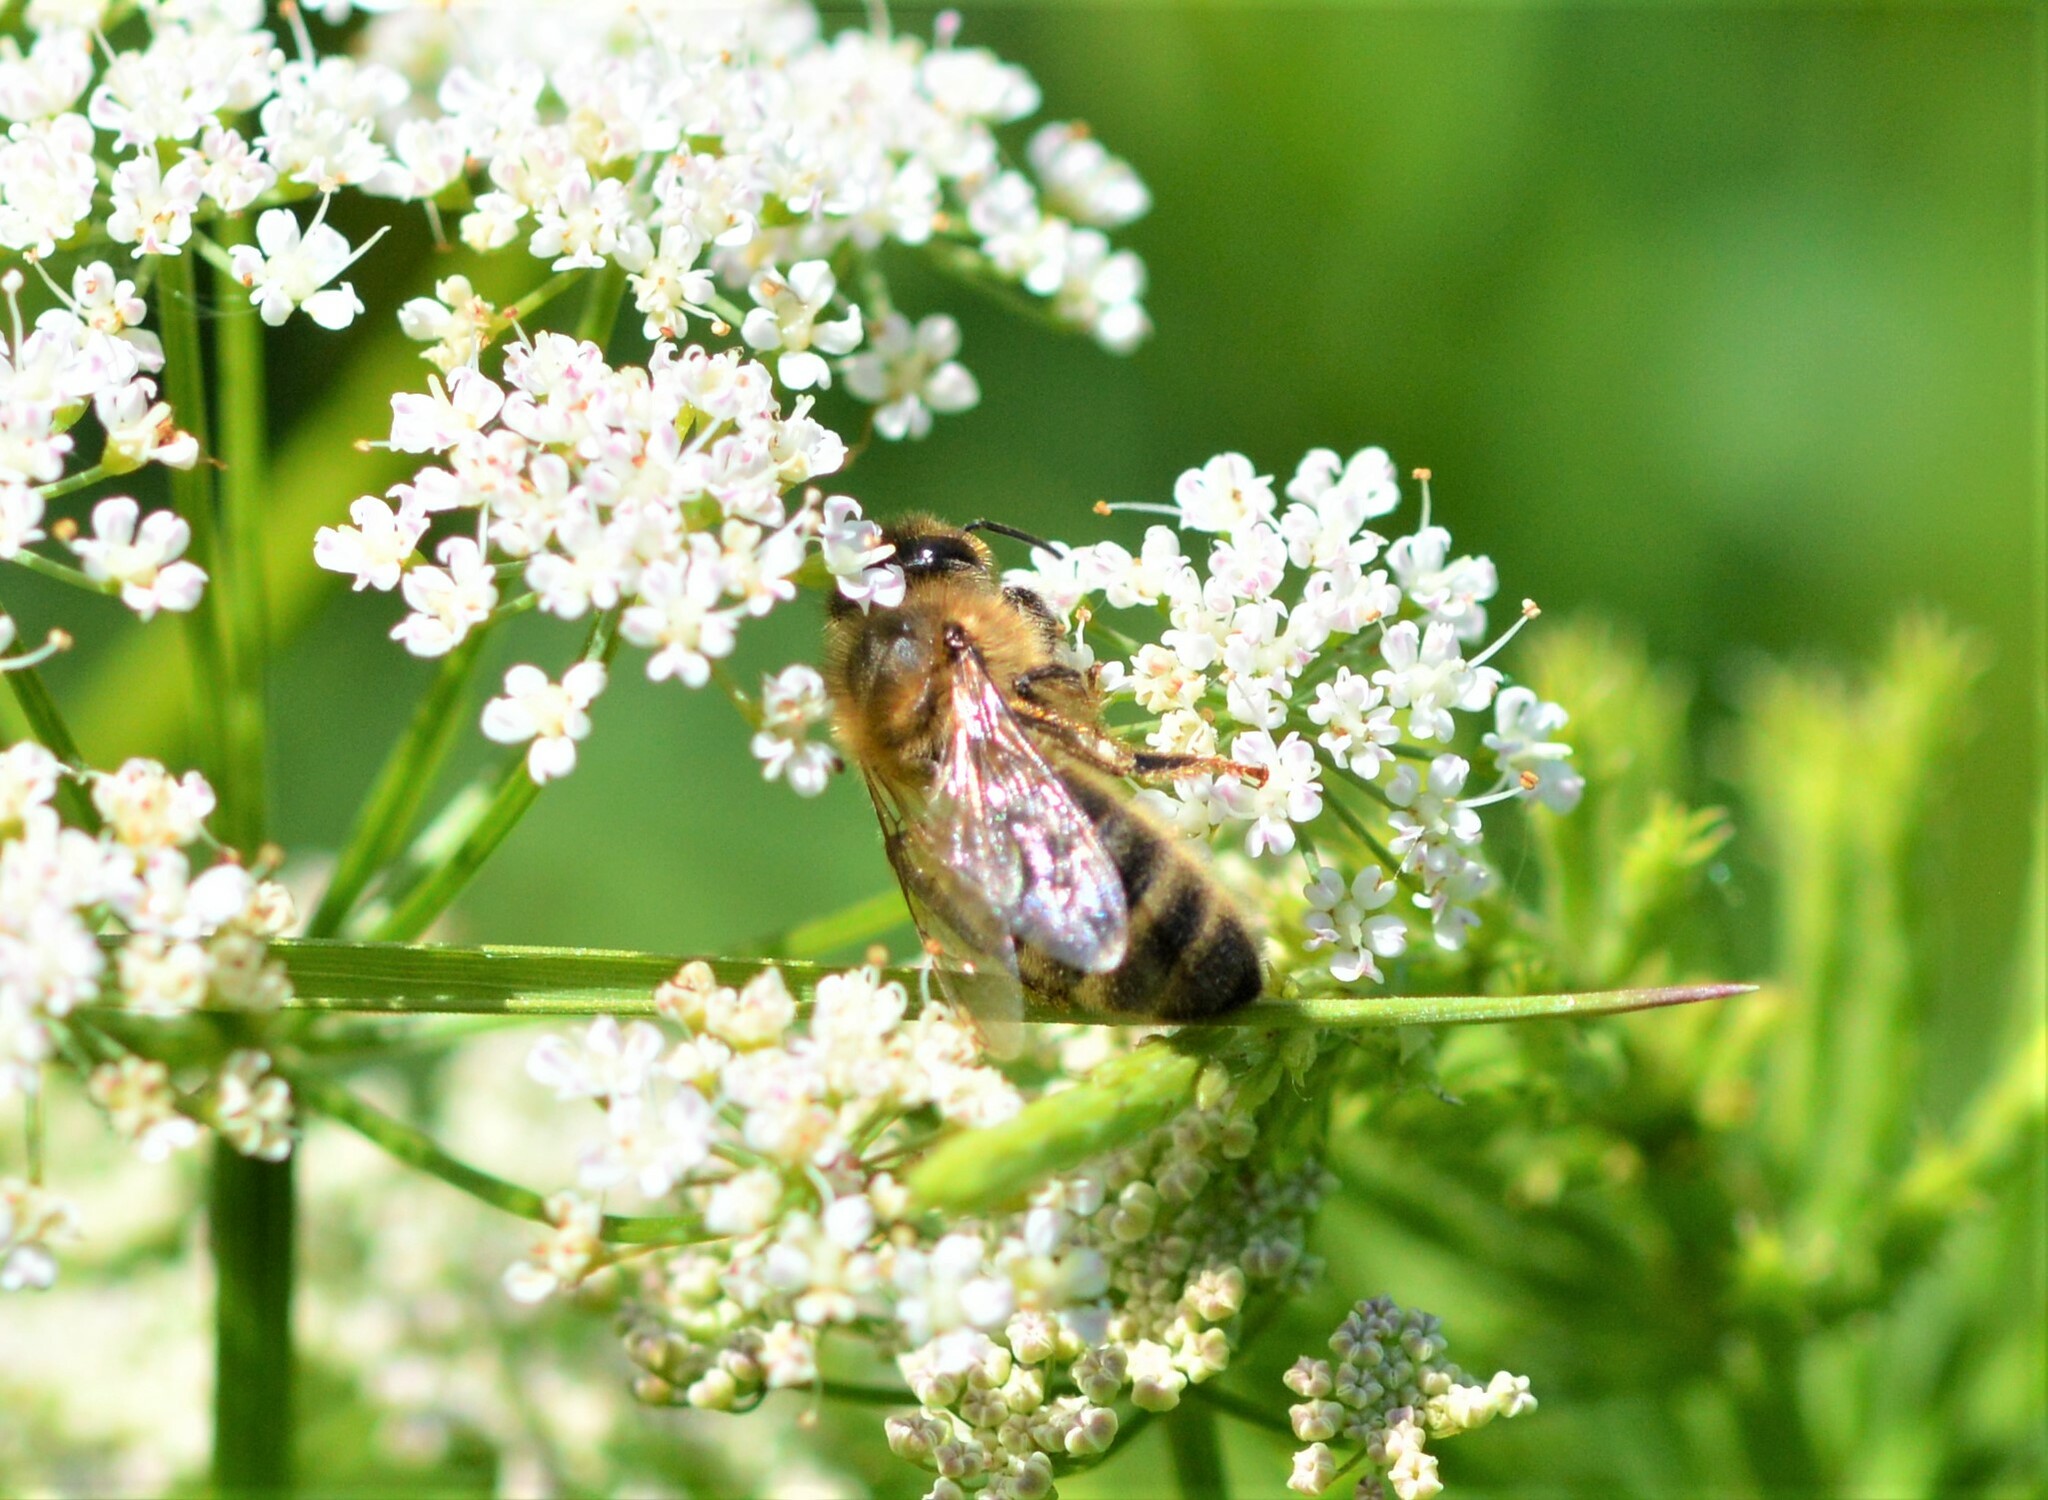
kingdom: Animalia
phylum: Arthropoda
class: Insecta
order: Hymenoptera
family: Apidae
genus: Apis
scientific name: Apis mellifera
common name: Honey bee
